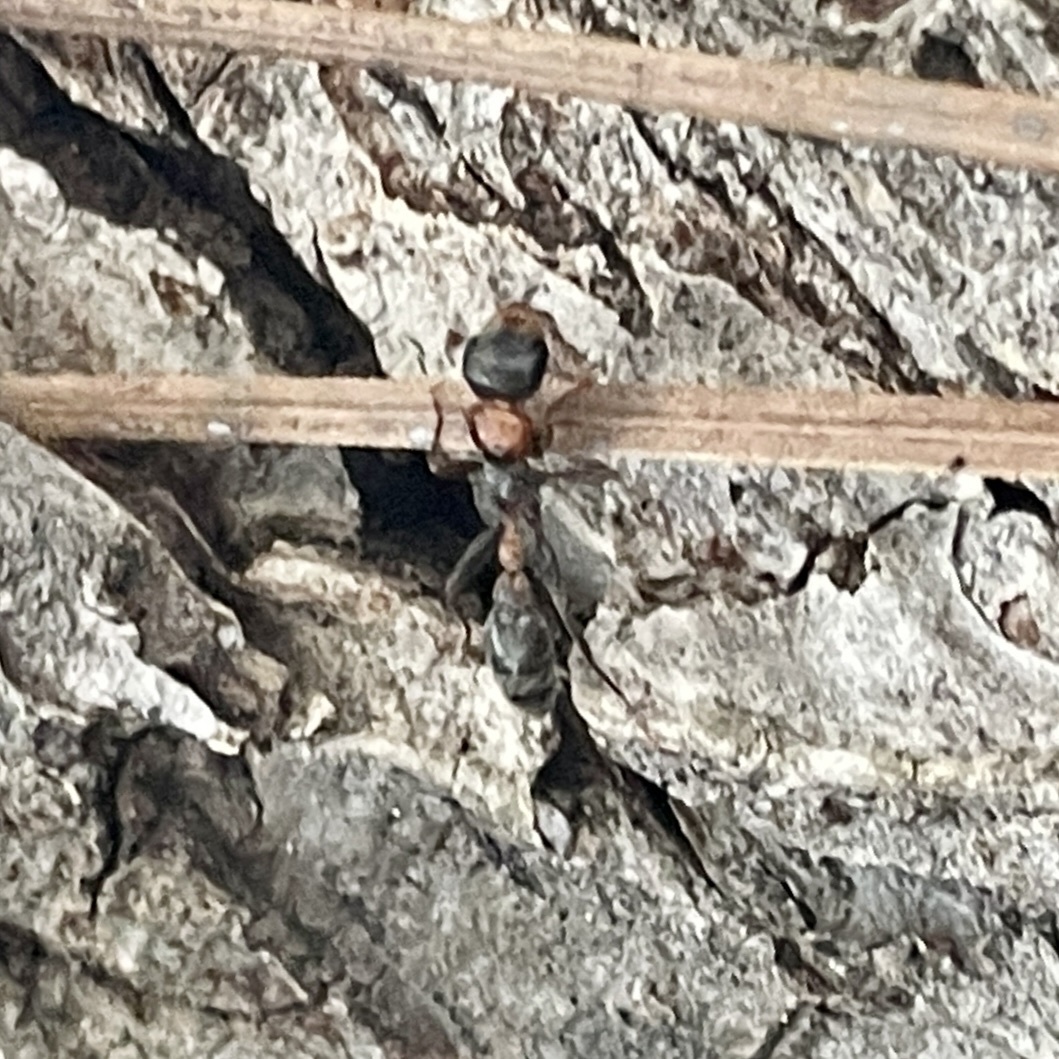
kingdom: Animalia
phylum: Arthropoda
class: Insecta
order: Hymenoptera
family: Formicidae
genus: Pseudomyrmex
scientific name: Pseudomyrmex gracilis
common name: Graceful twig ant
